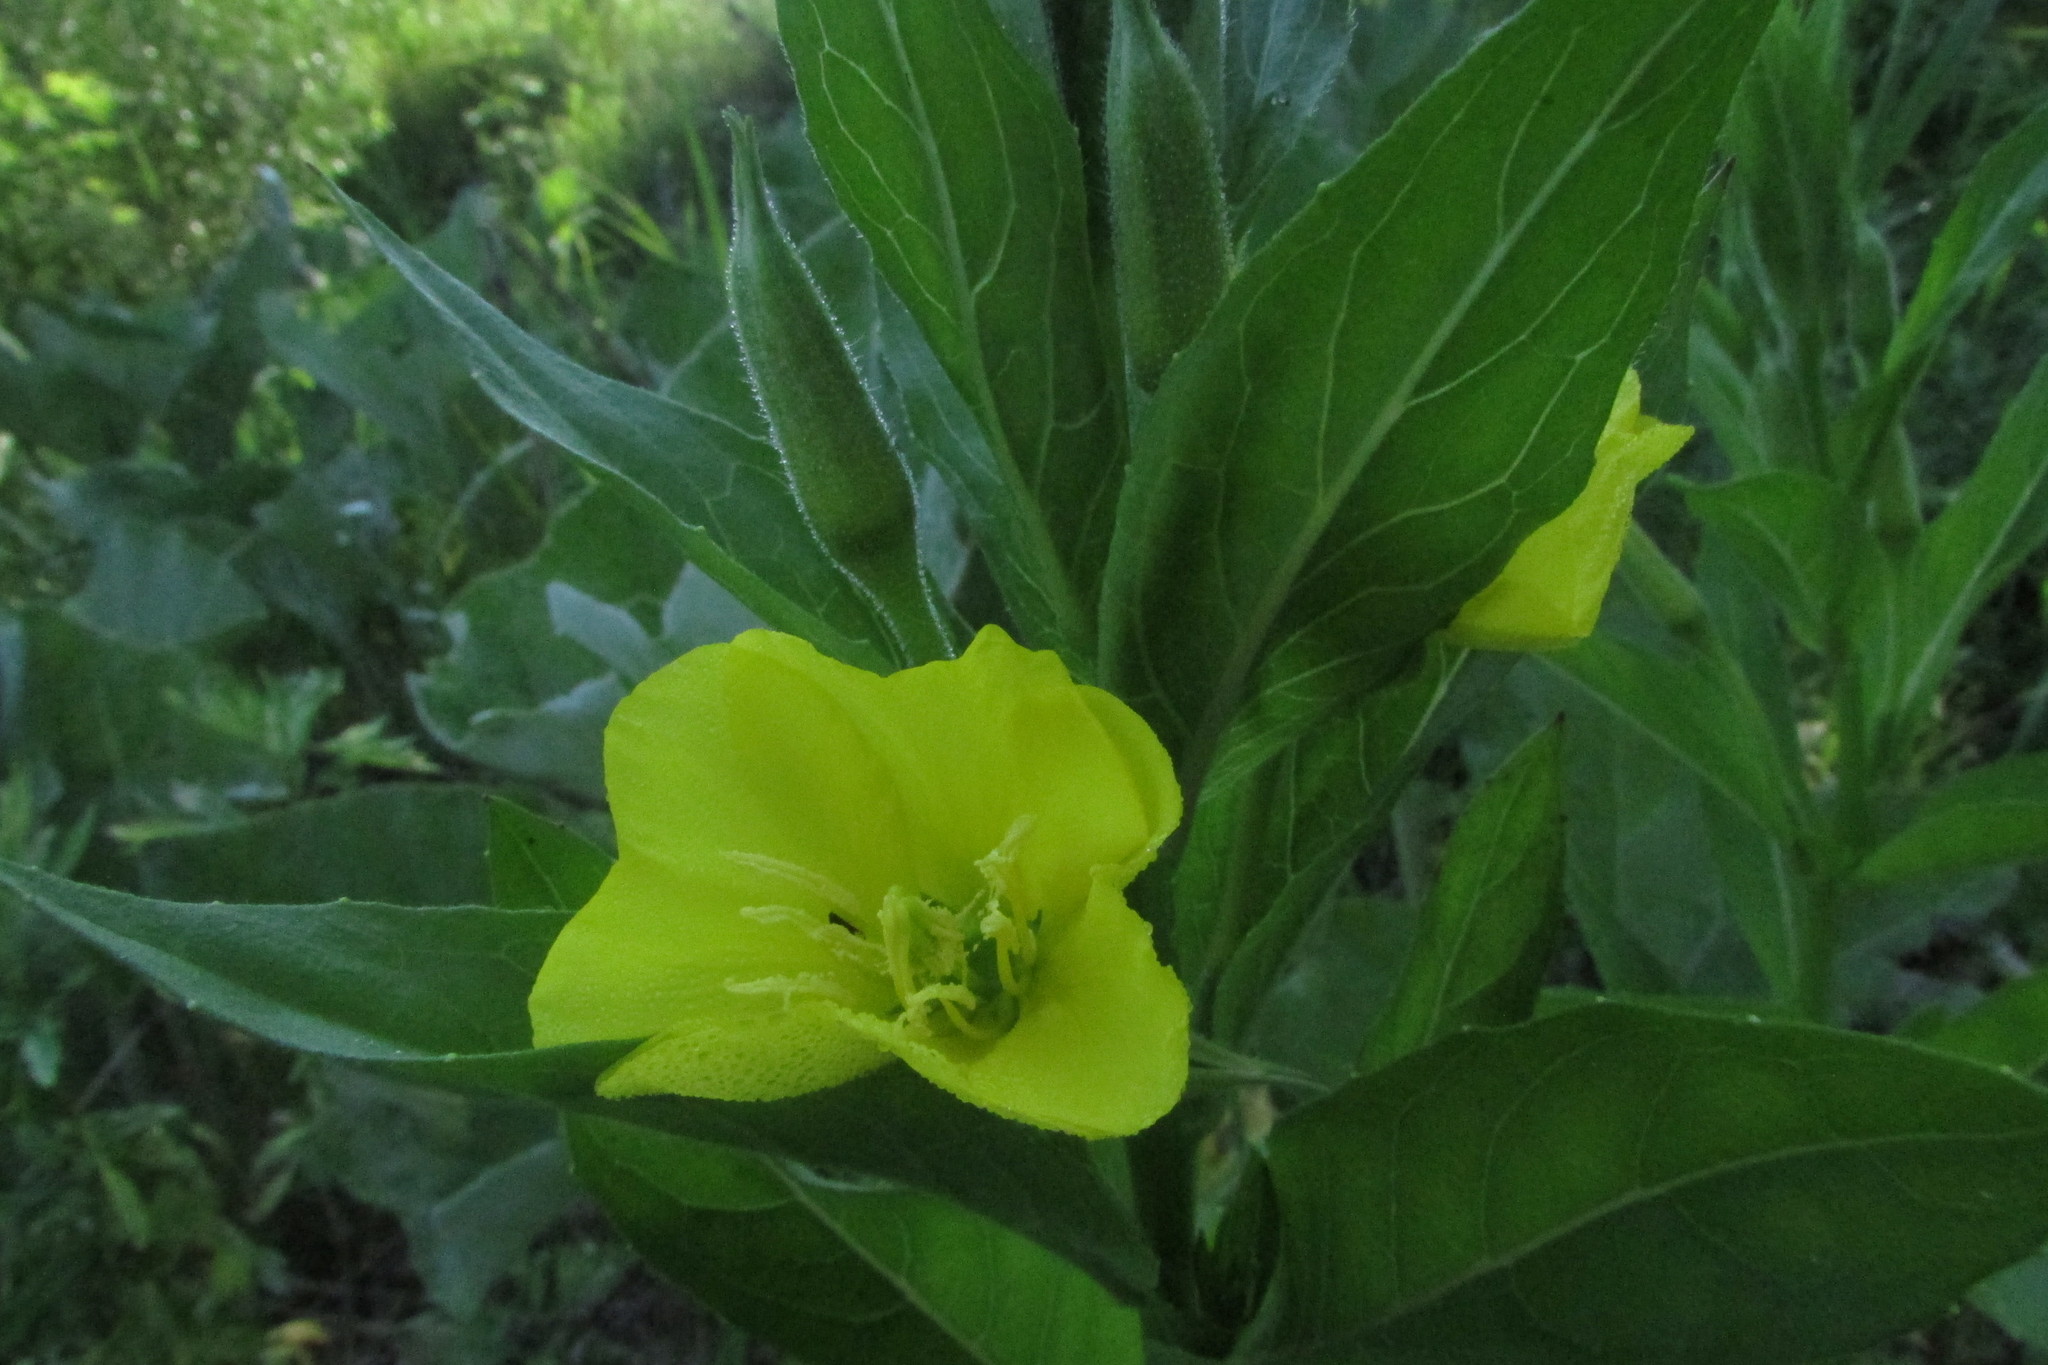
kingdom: Plantae
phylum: Tracheophyta
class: Magnoliopsida
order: Myrtales
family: Onagraceae
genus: Oenothera
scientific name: Oenothera biennis
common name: Common evening-primrose
